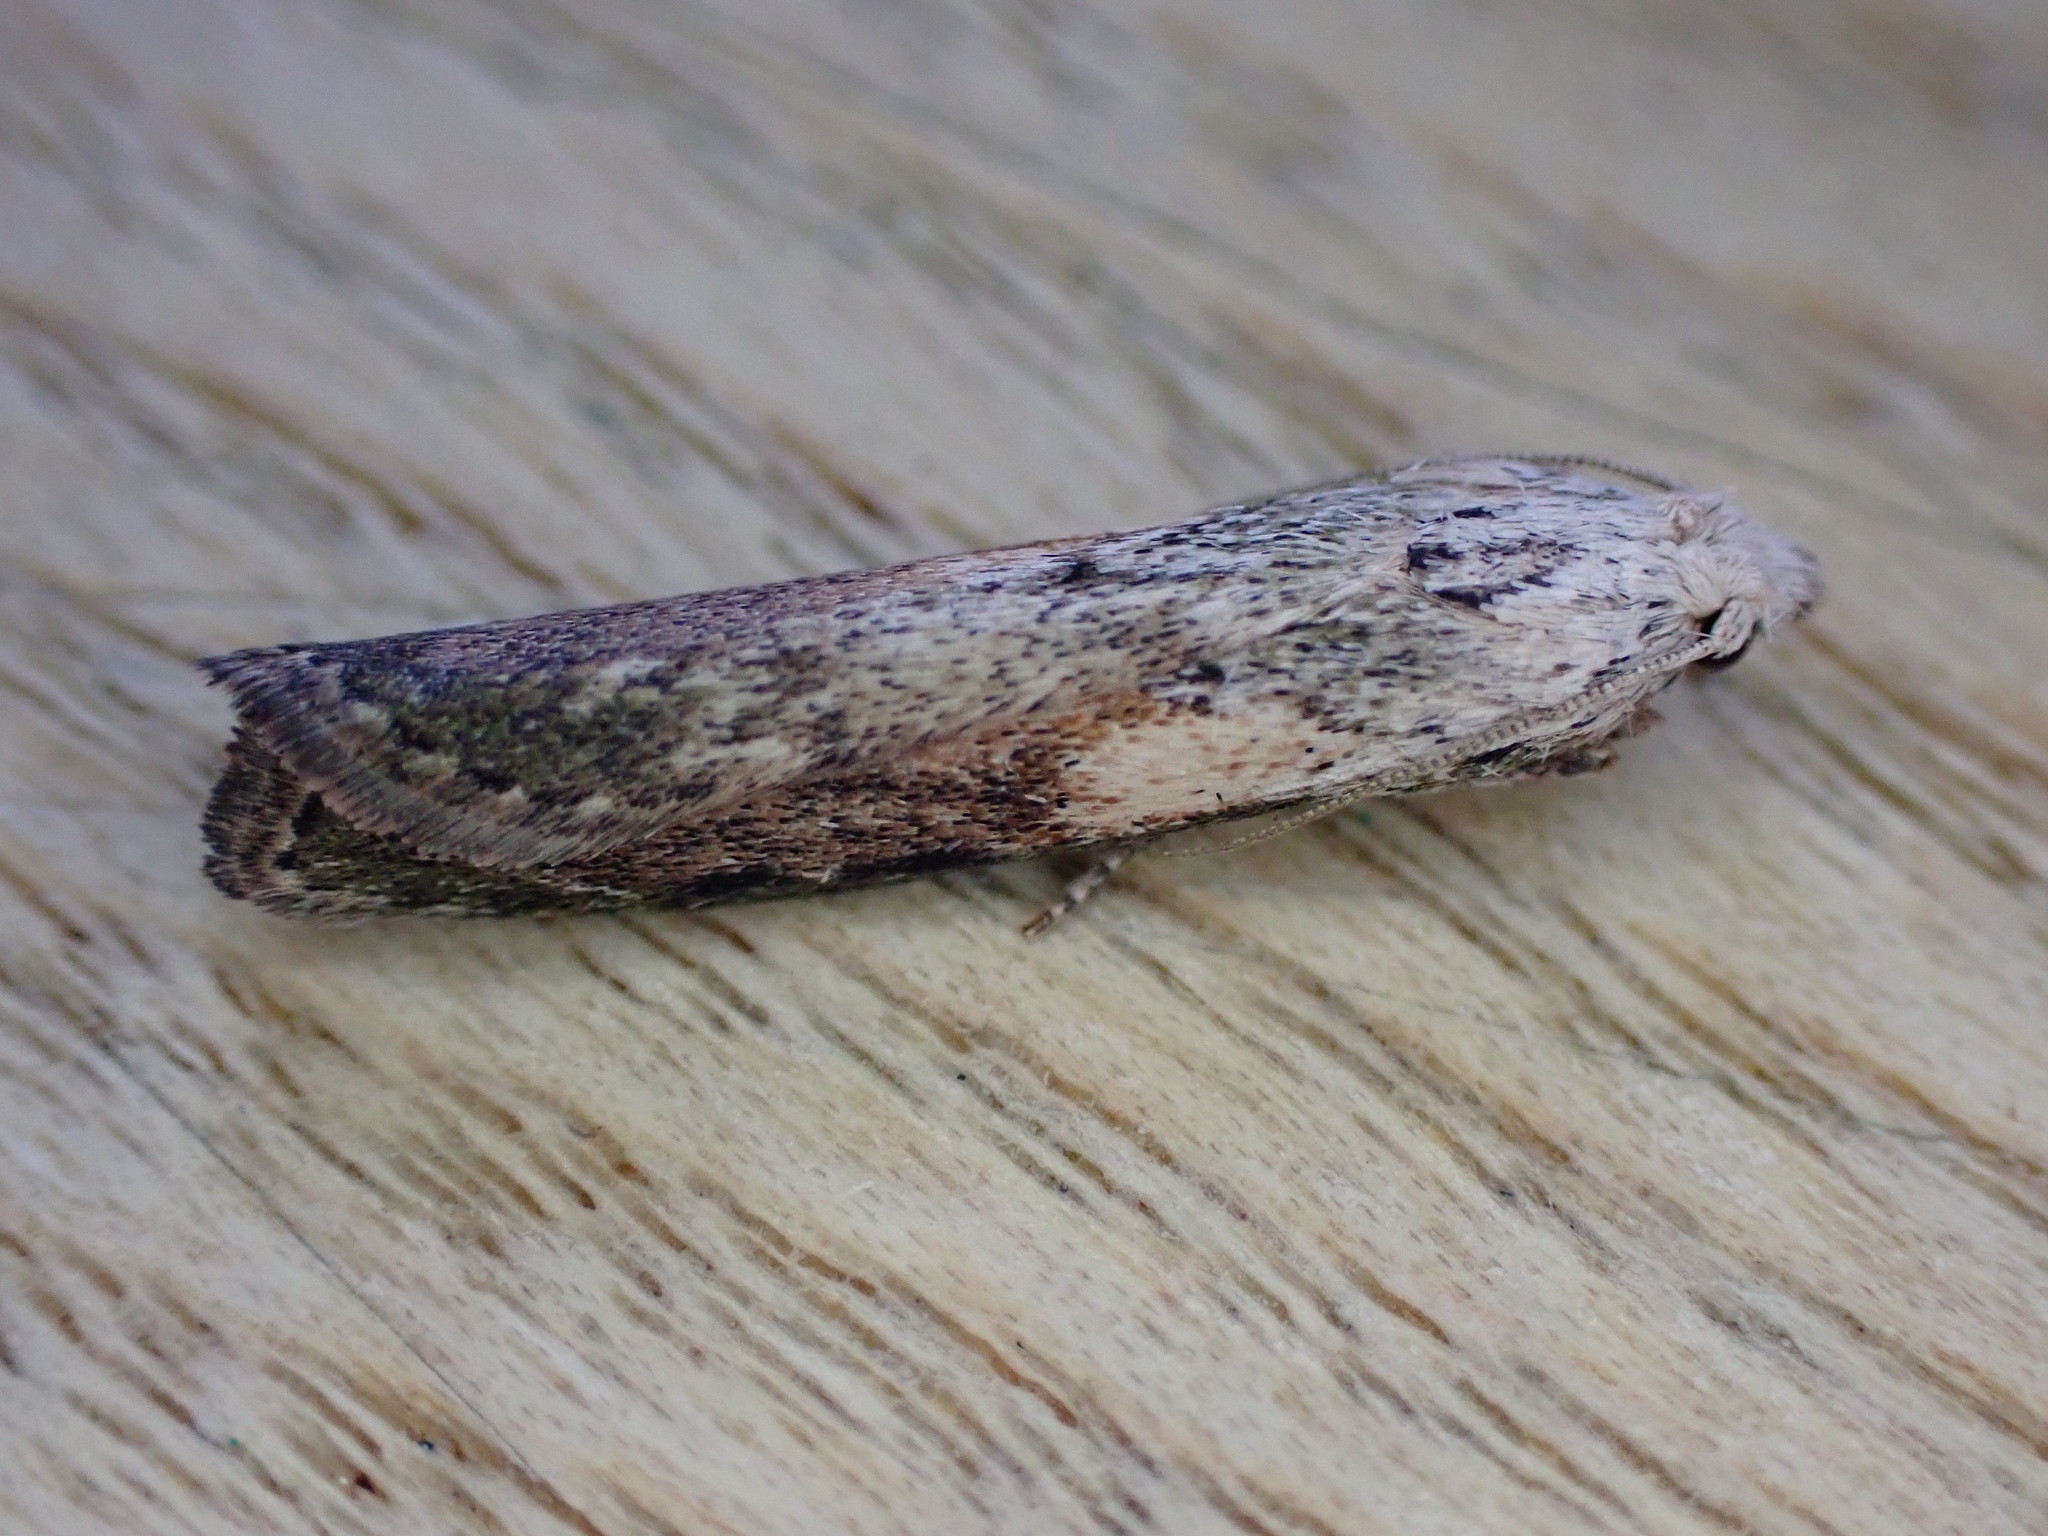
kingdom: Animalia
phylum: Arthropoda
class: Insecta
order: Lepidoptera
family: Pyralidae
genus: Aphomia
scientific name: Aphomia sociella
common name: Bee moth
